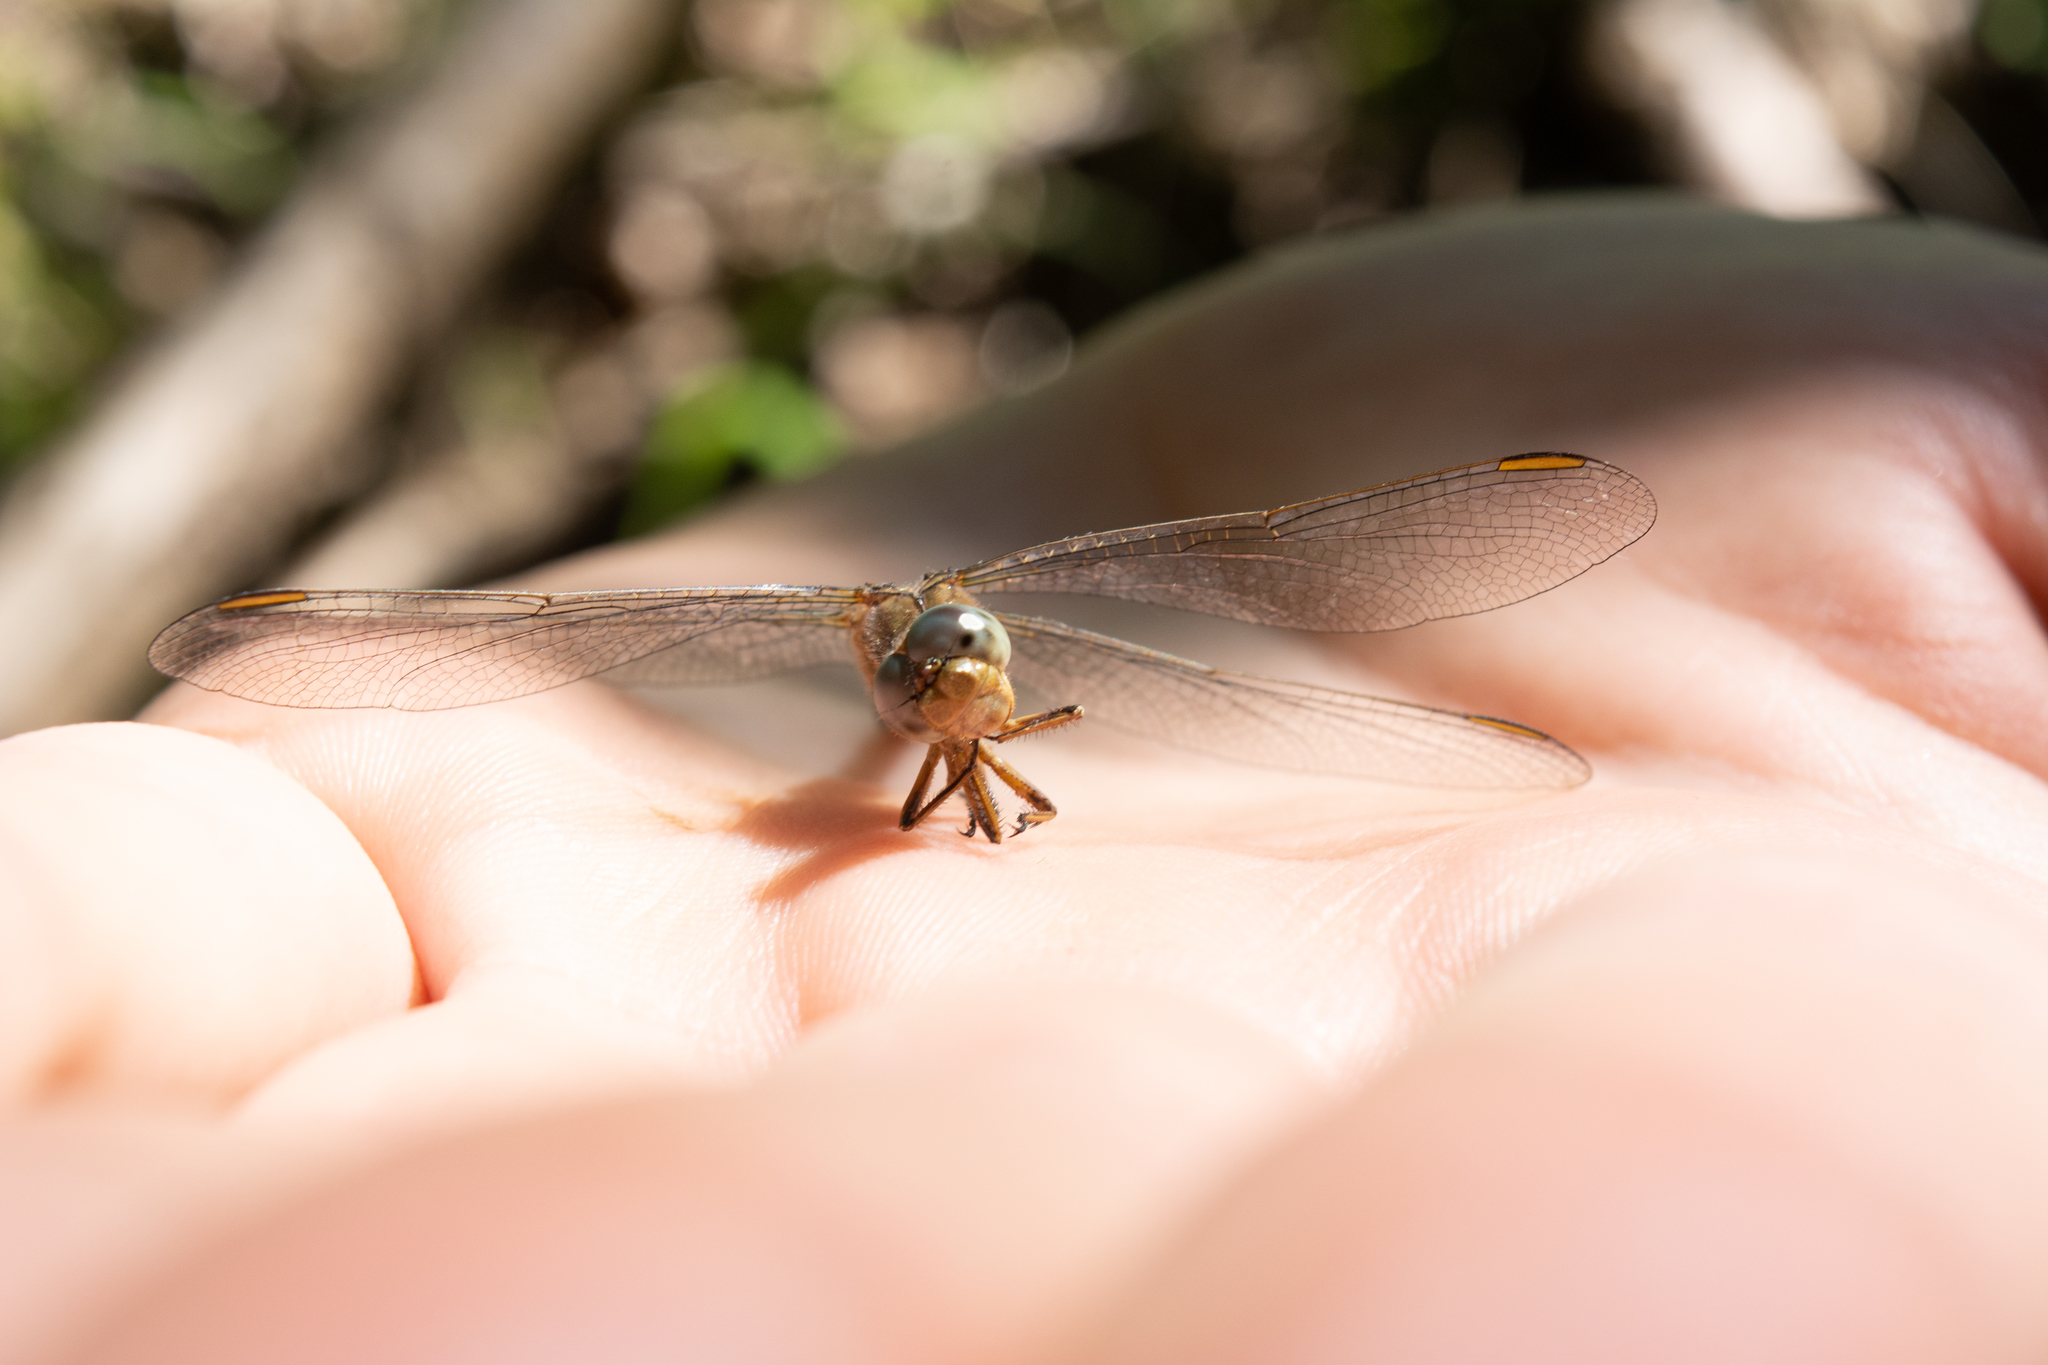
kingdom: Animalia
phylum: Arthropoda
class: Insecta
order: Odonata
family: Libellulidae
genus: Orthetrum
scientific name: Orthetrum coerulescens
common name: Keeled skimmer
